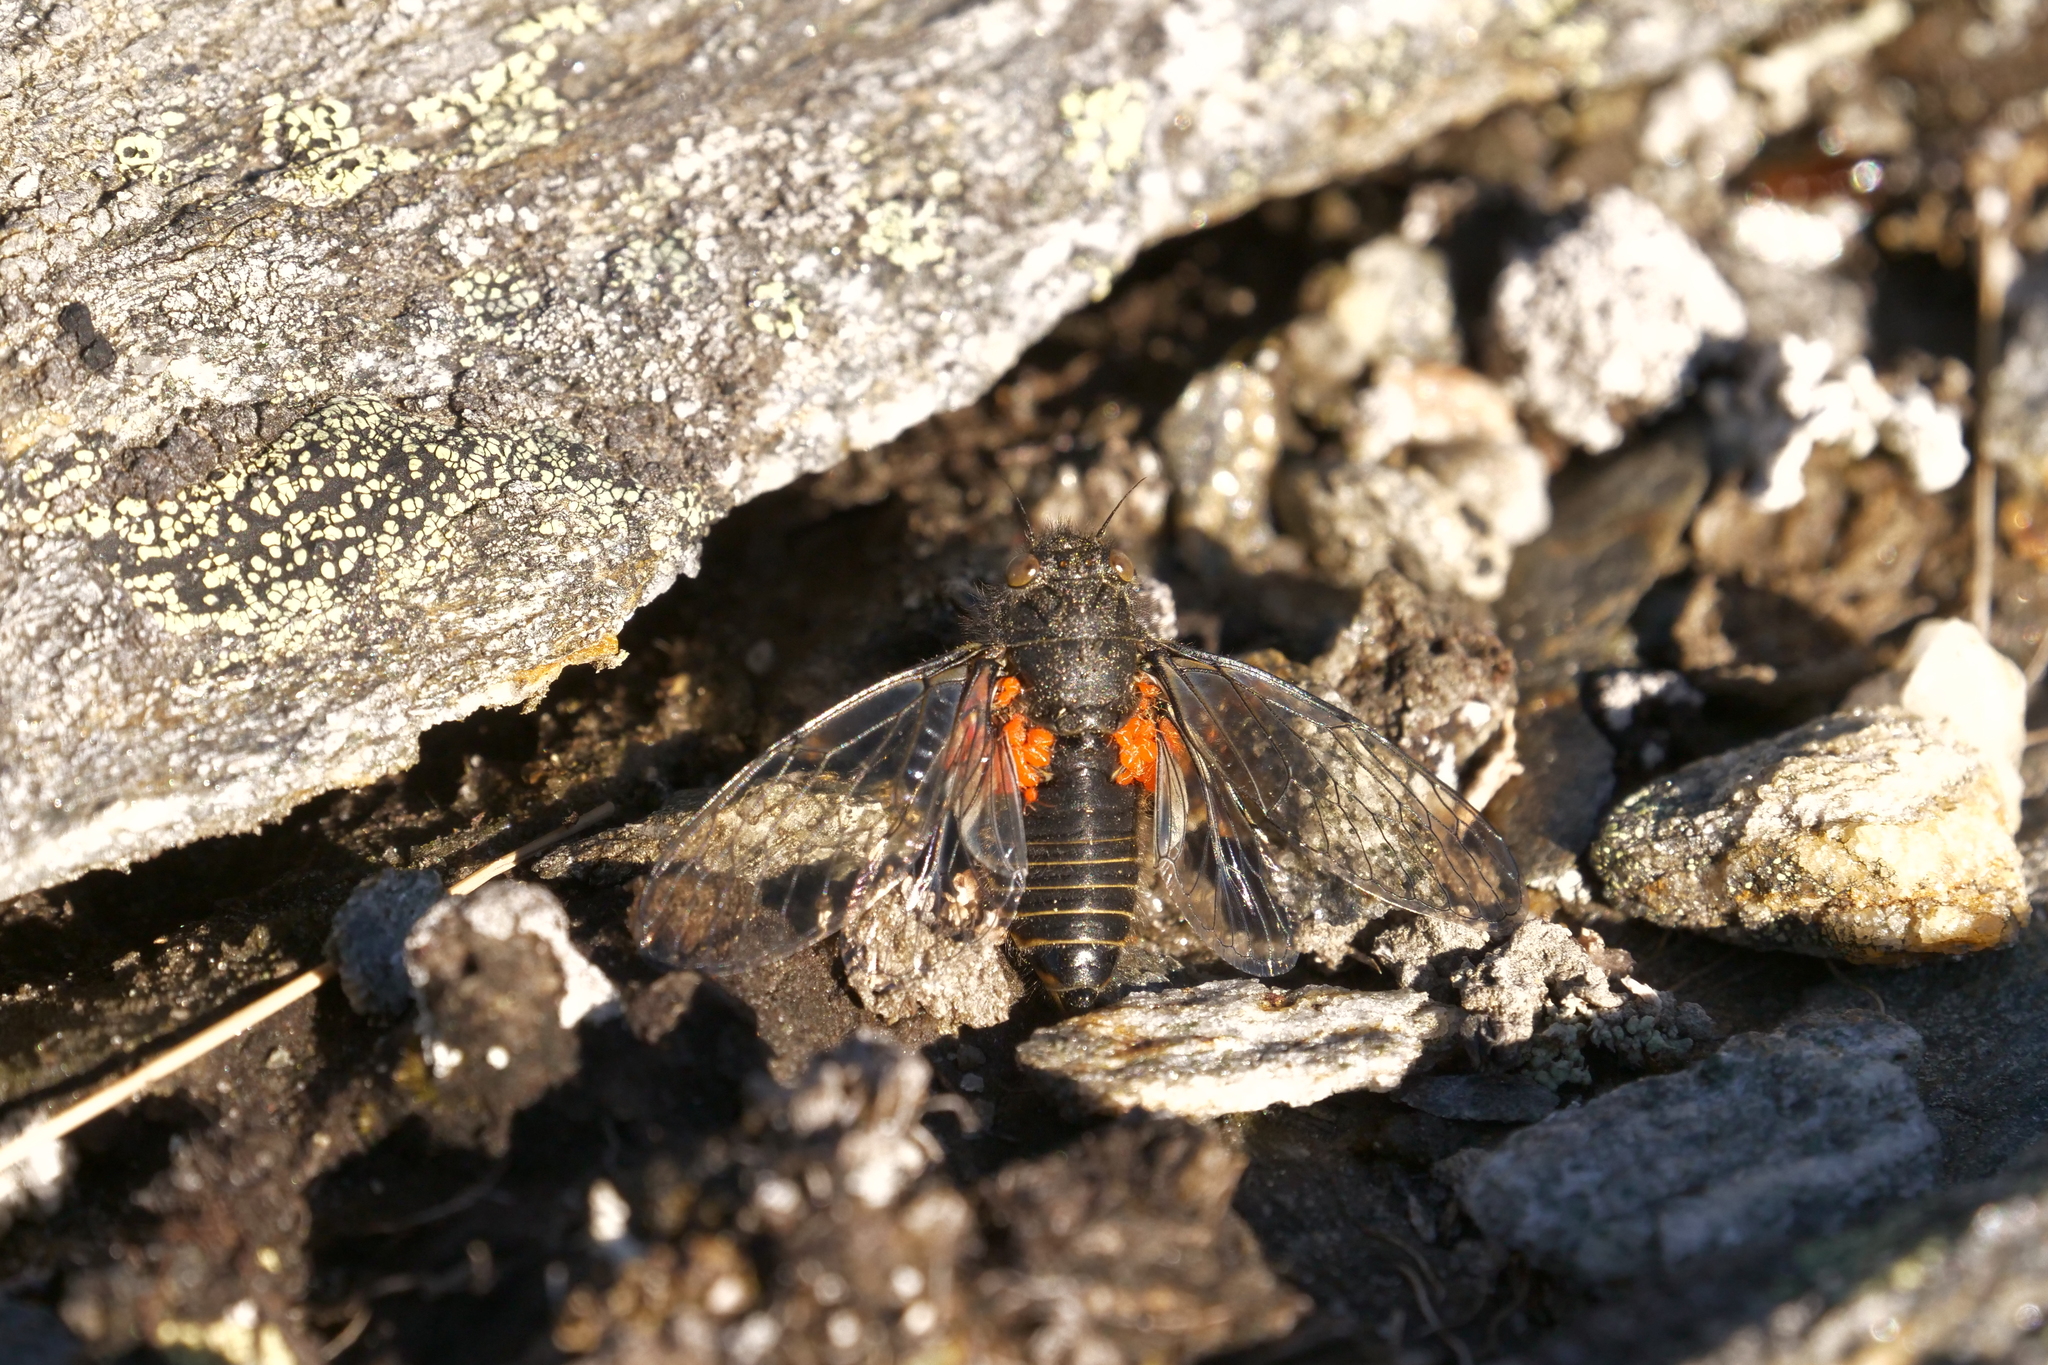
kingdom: Animalia
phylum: Arthropoda
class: Insecta
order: Hemiptera
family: Cicadidae
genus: Maoricicada
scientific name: Maoricicada otagoensis
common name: Otago speargrass cicada
